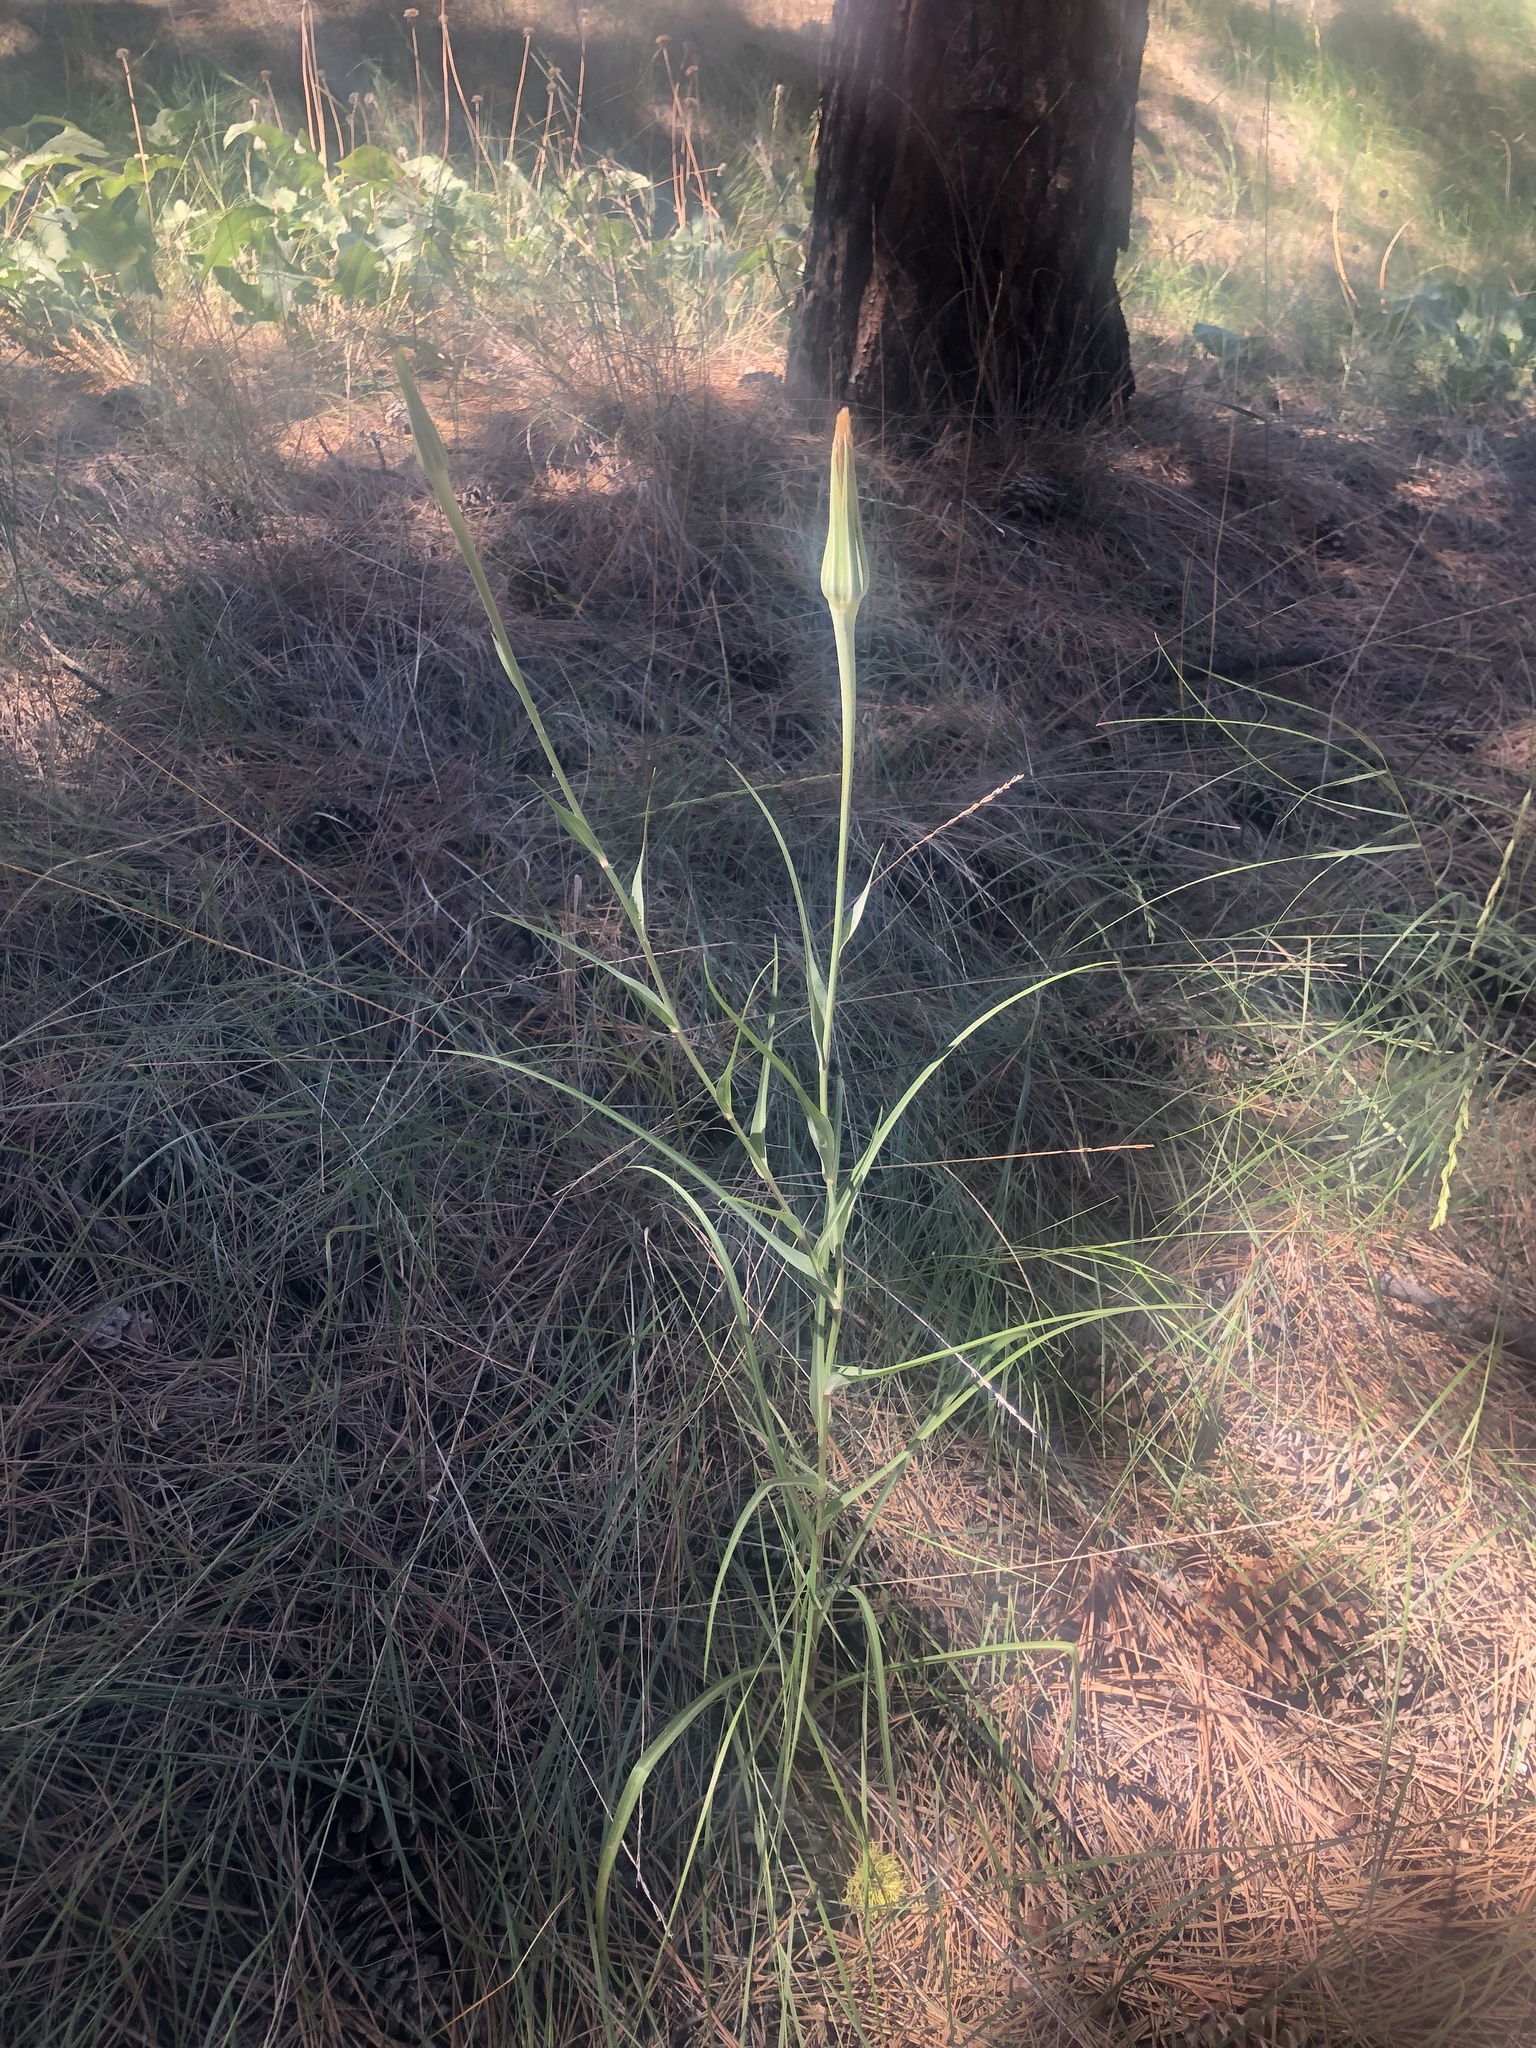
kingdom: Plantae
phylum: Tracheophyta
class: Magnoliopsida
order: Asterales
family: Asteraceae
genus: Tragopogon
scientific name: Tragopogon dubius
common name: Yellow salsify
